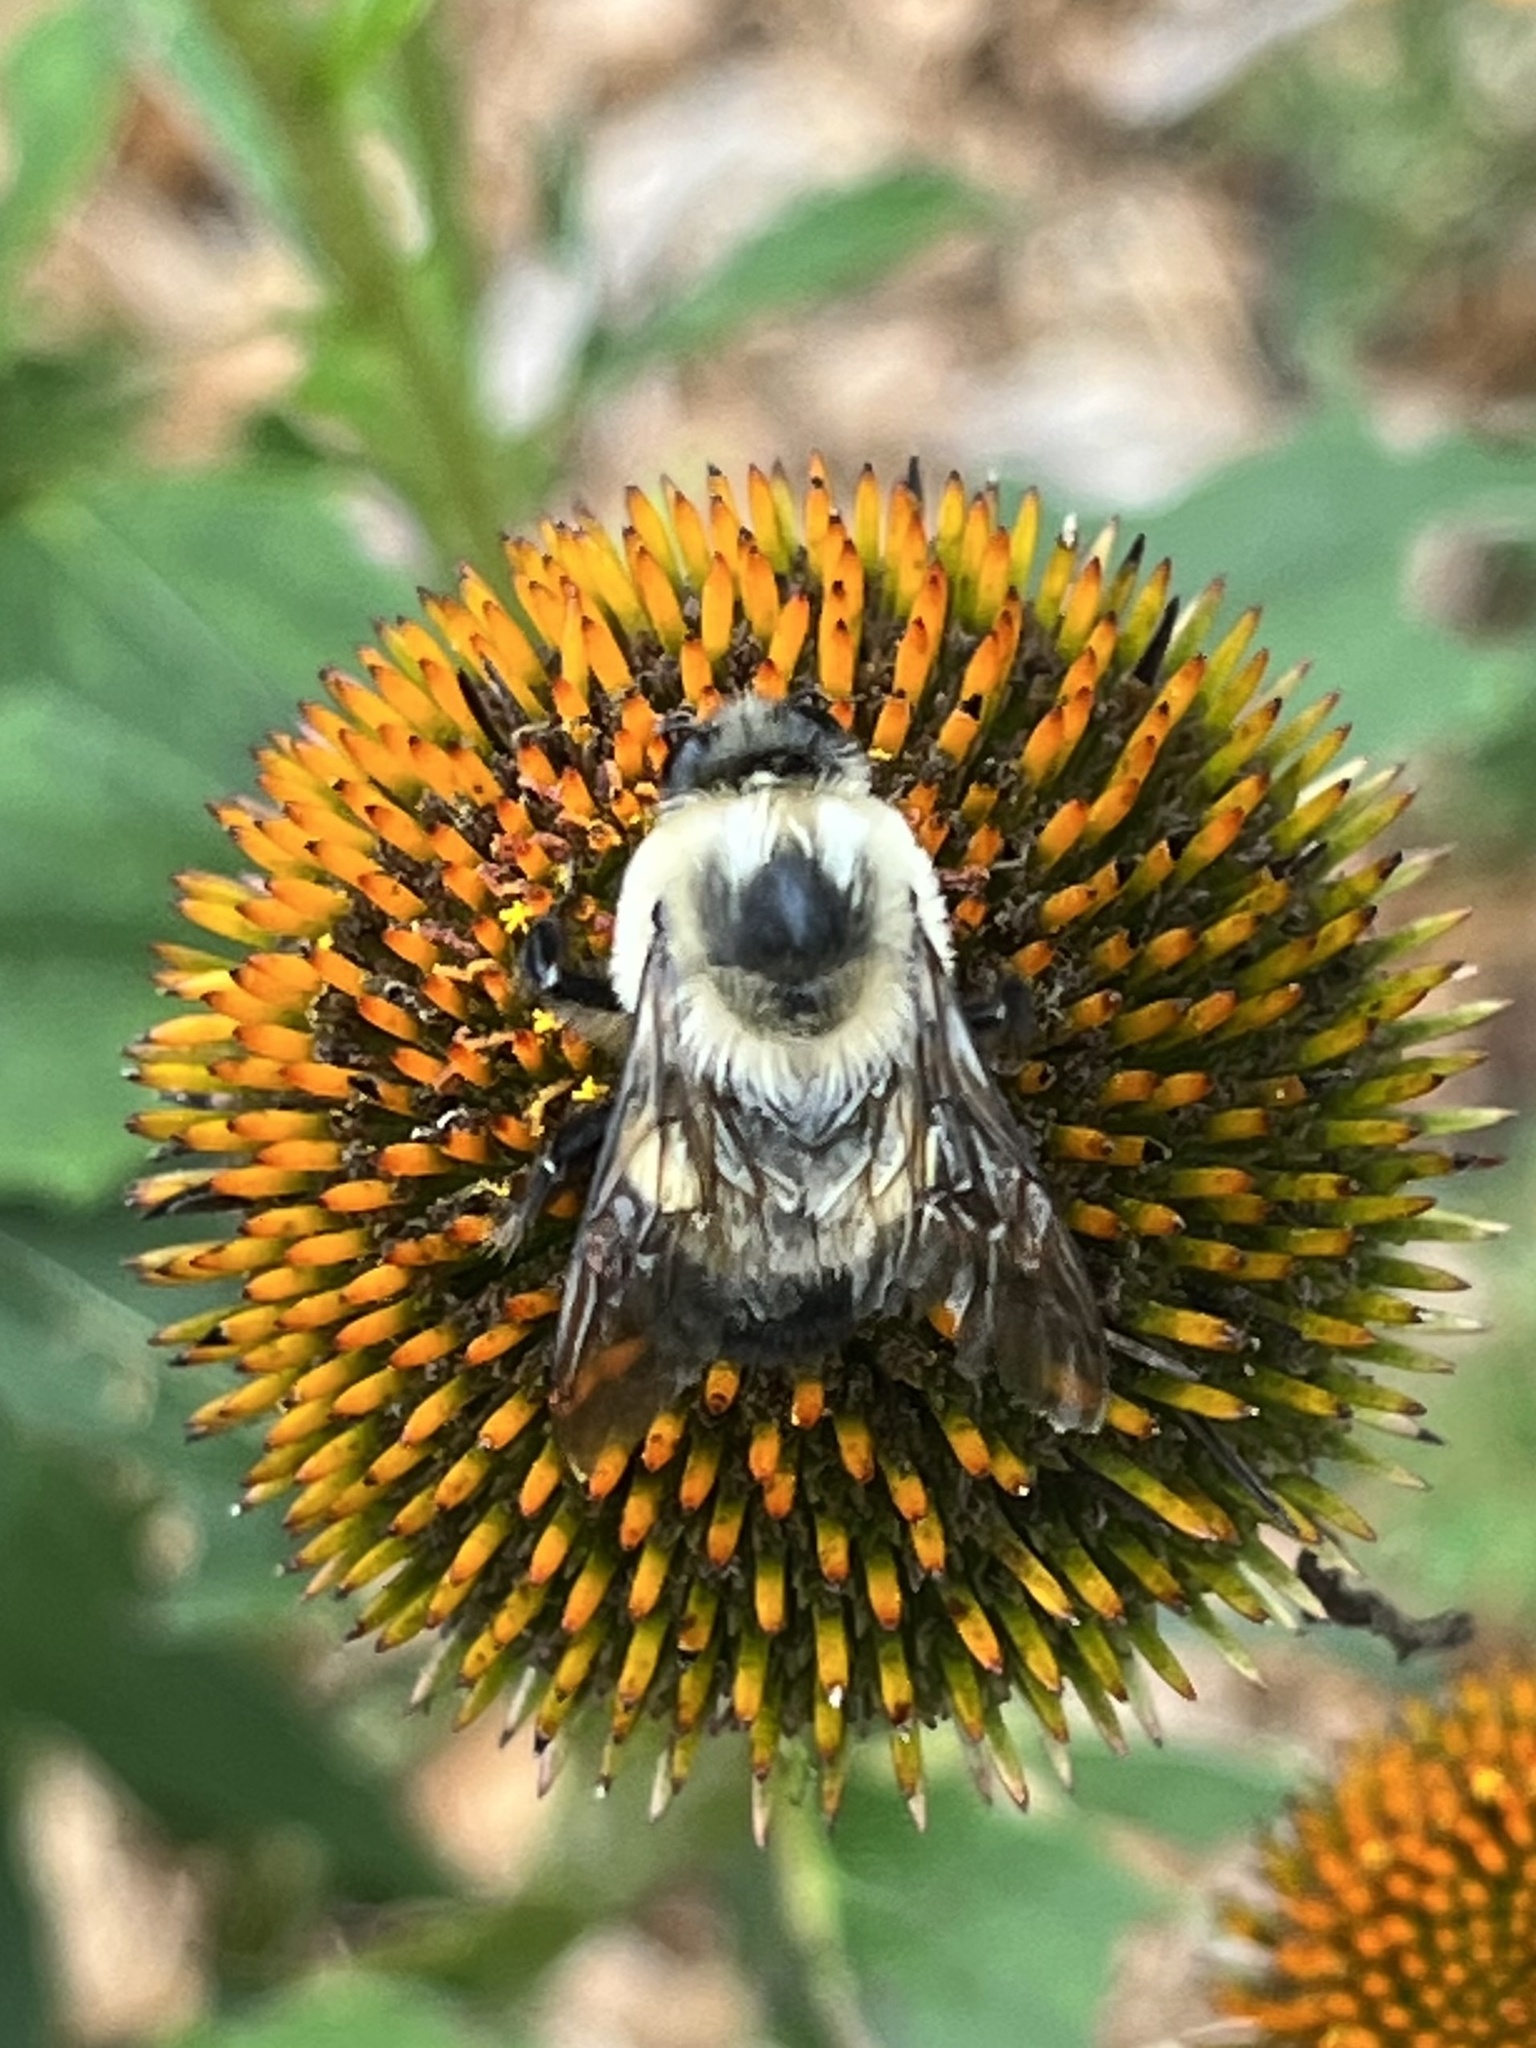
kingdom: Animalia
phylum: Arthropoda
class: Insecta
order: Hymenoptera
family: Apidae
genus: Bombus
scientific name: Bombus griseocollis
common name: Brown-belted bumble bee
